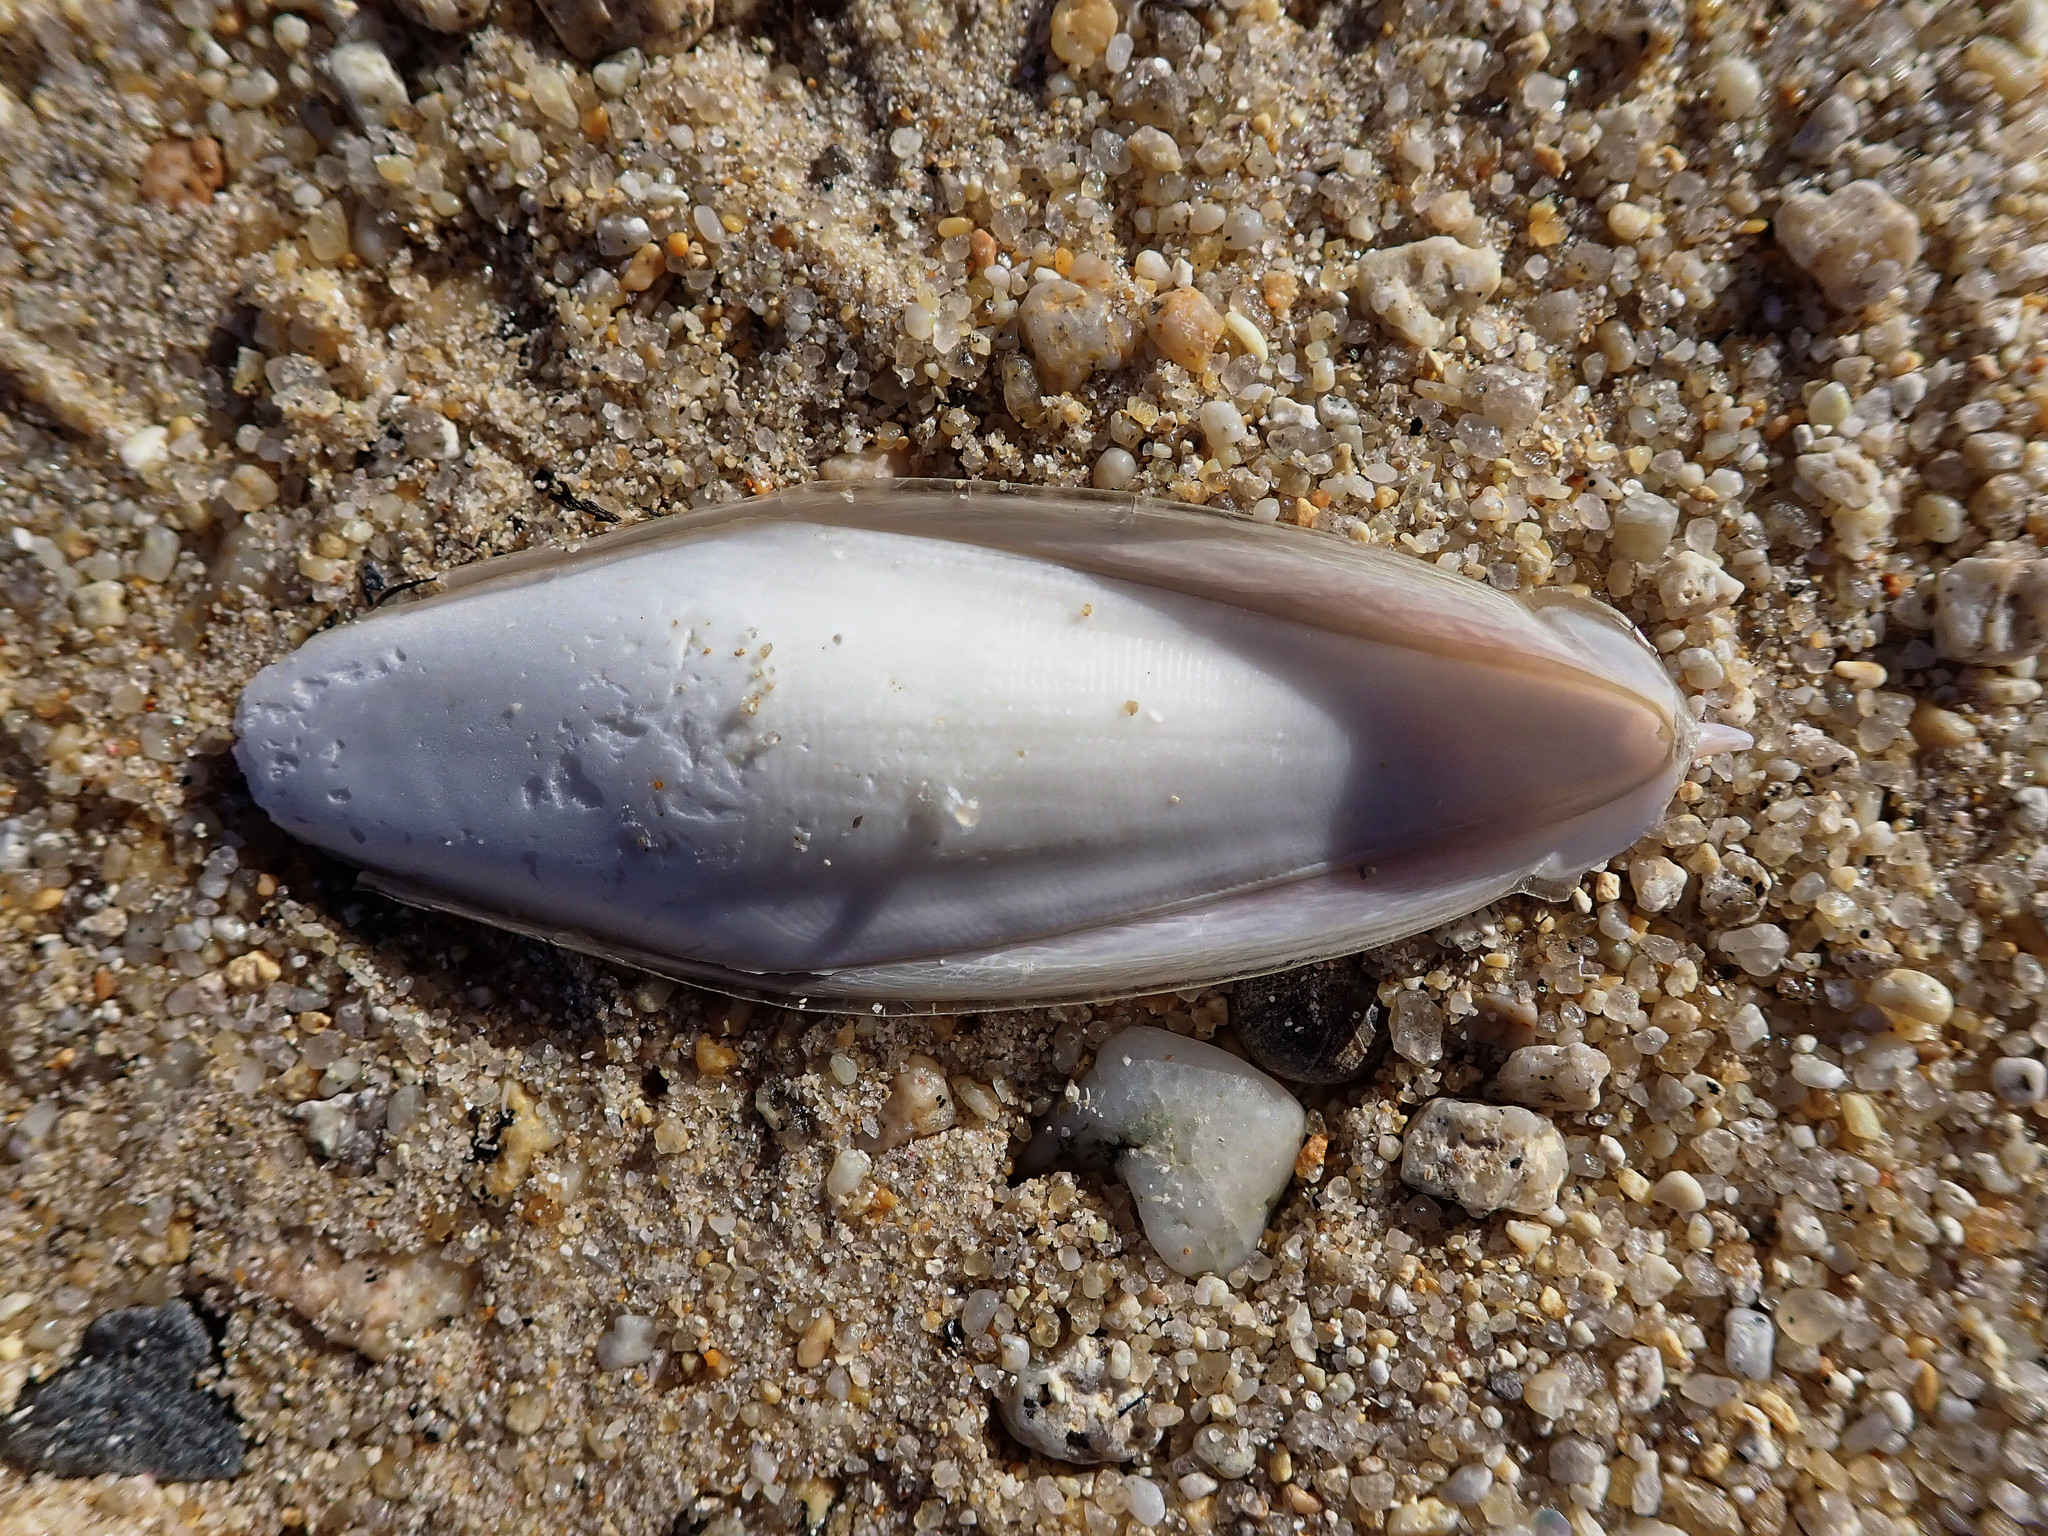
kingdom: Animalia
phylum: Mollusca
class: Cephalopoda
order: Sepiida
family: Sepiidae
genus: Rhombosepion
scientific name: Rhombosepion orbignyanum
